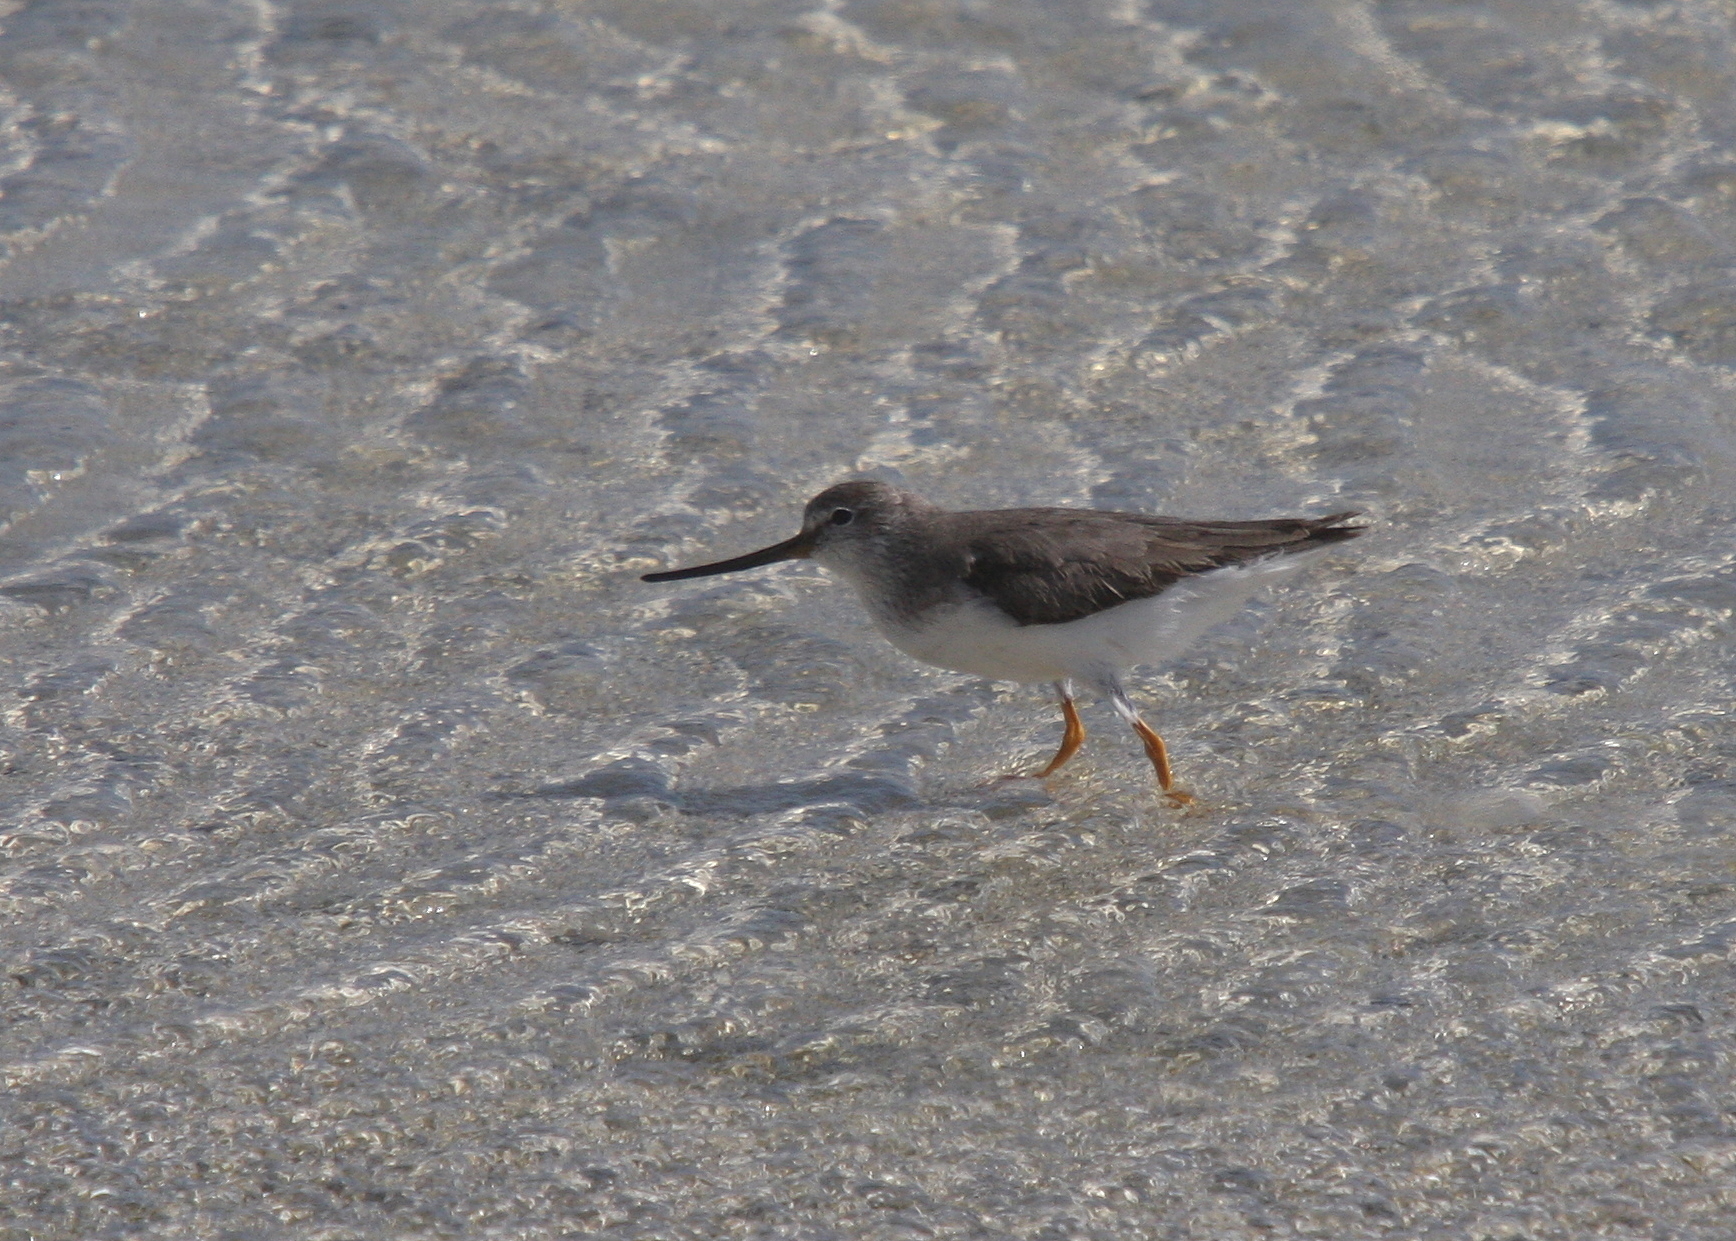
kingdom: Animalia
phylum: Chordata
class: Aves
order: Charadriiformes
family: Scolopacidae
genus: Xenus
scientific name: Xenus cinereus
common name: Terek sandpiper
